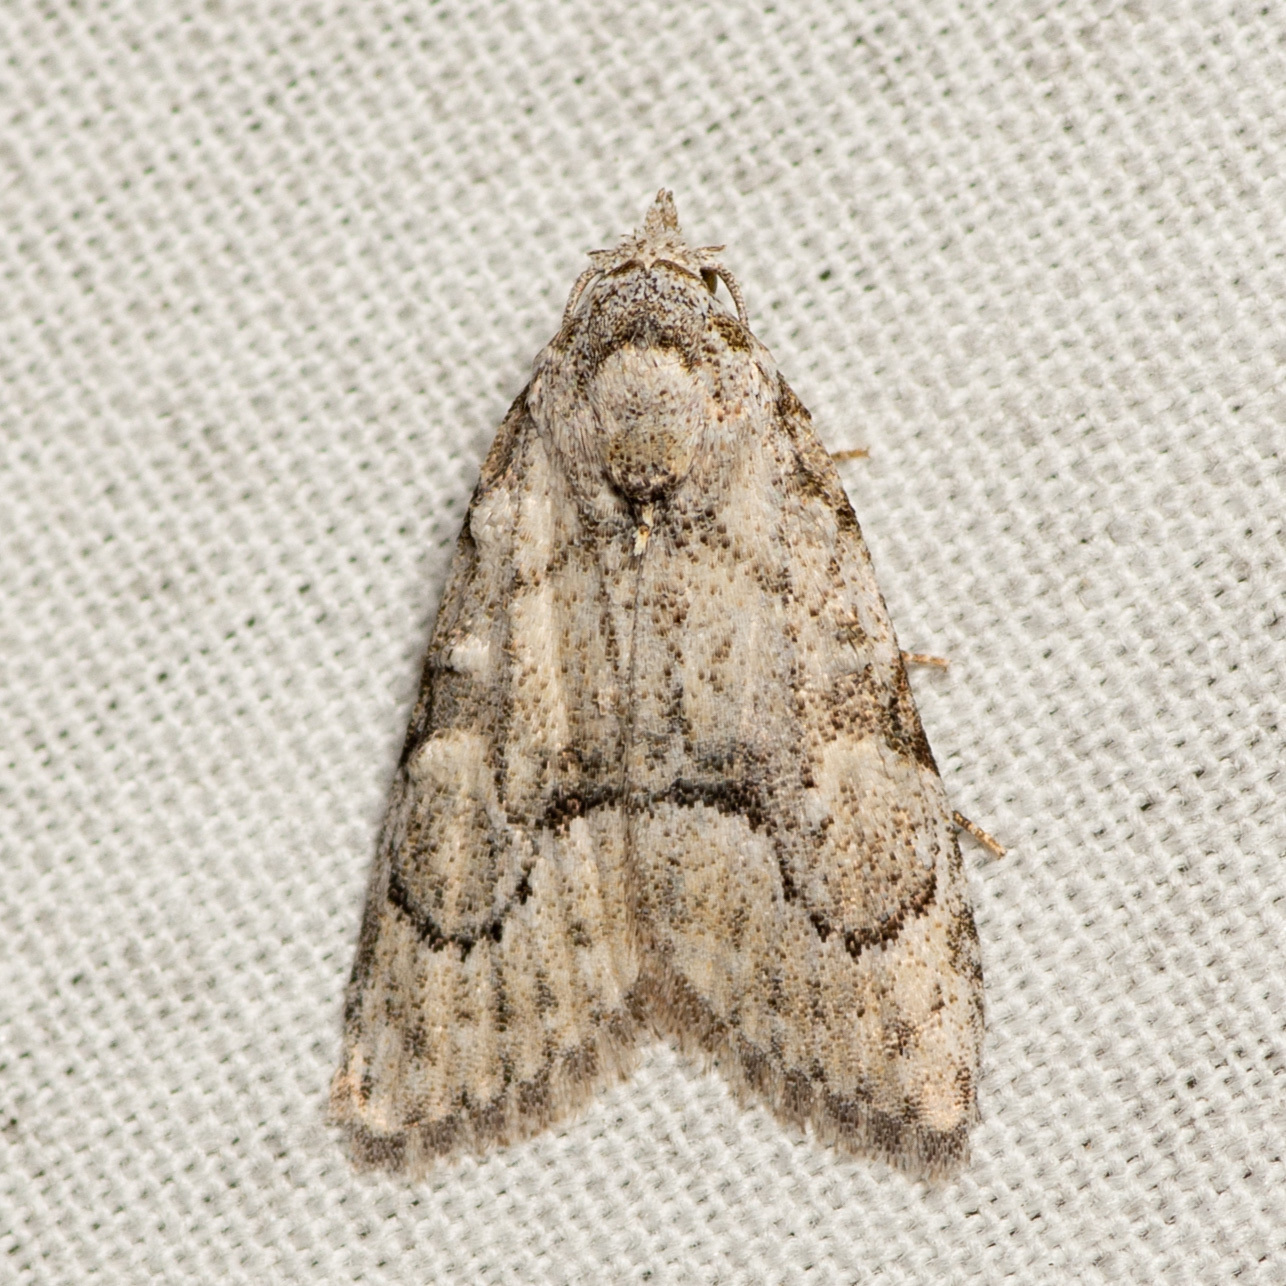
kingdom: Animalia
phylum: Arthropoda
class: Insecta
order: Lepidoptera
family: Nolidae
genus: Meganola
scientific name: Meganola minuscula
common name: Confused meganola moth
